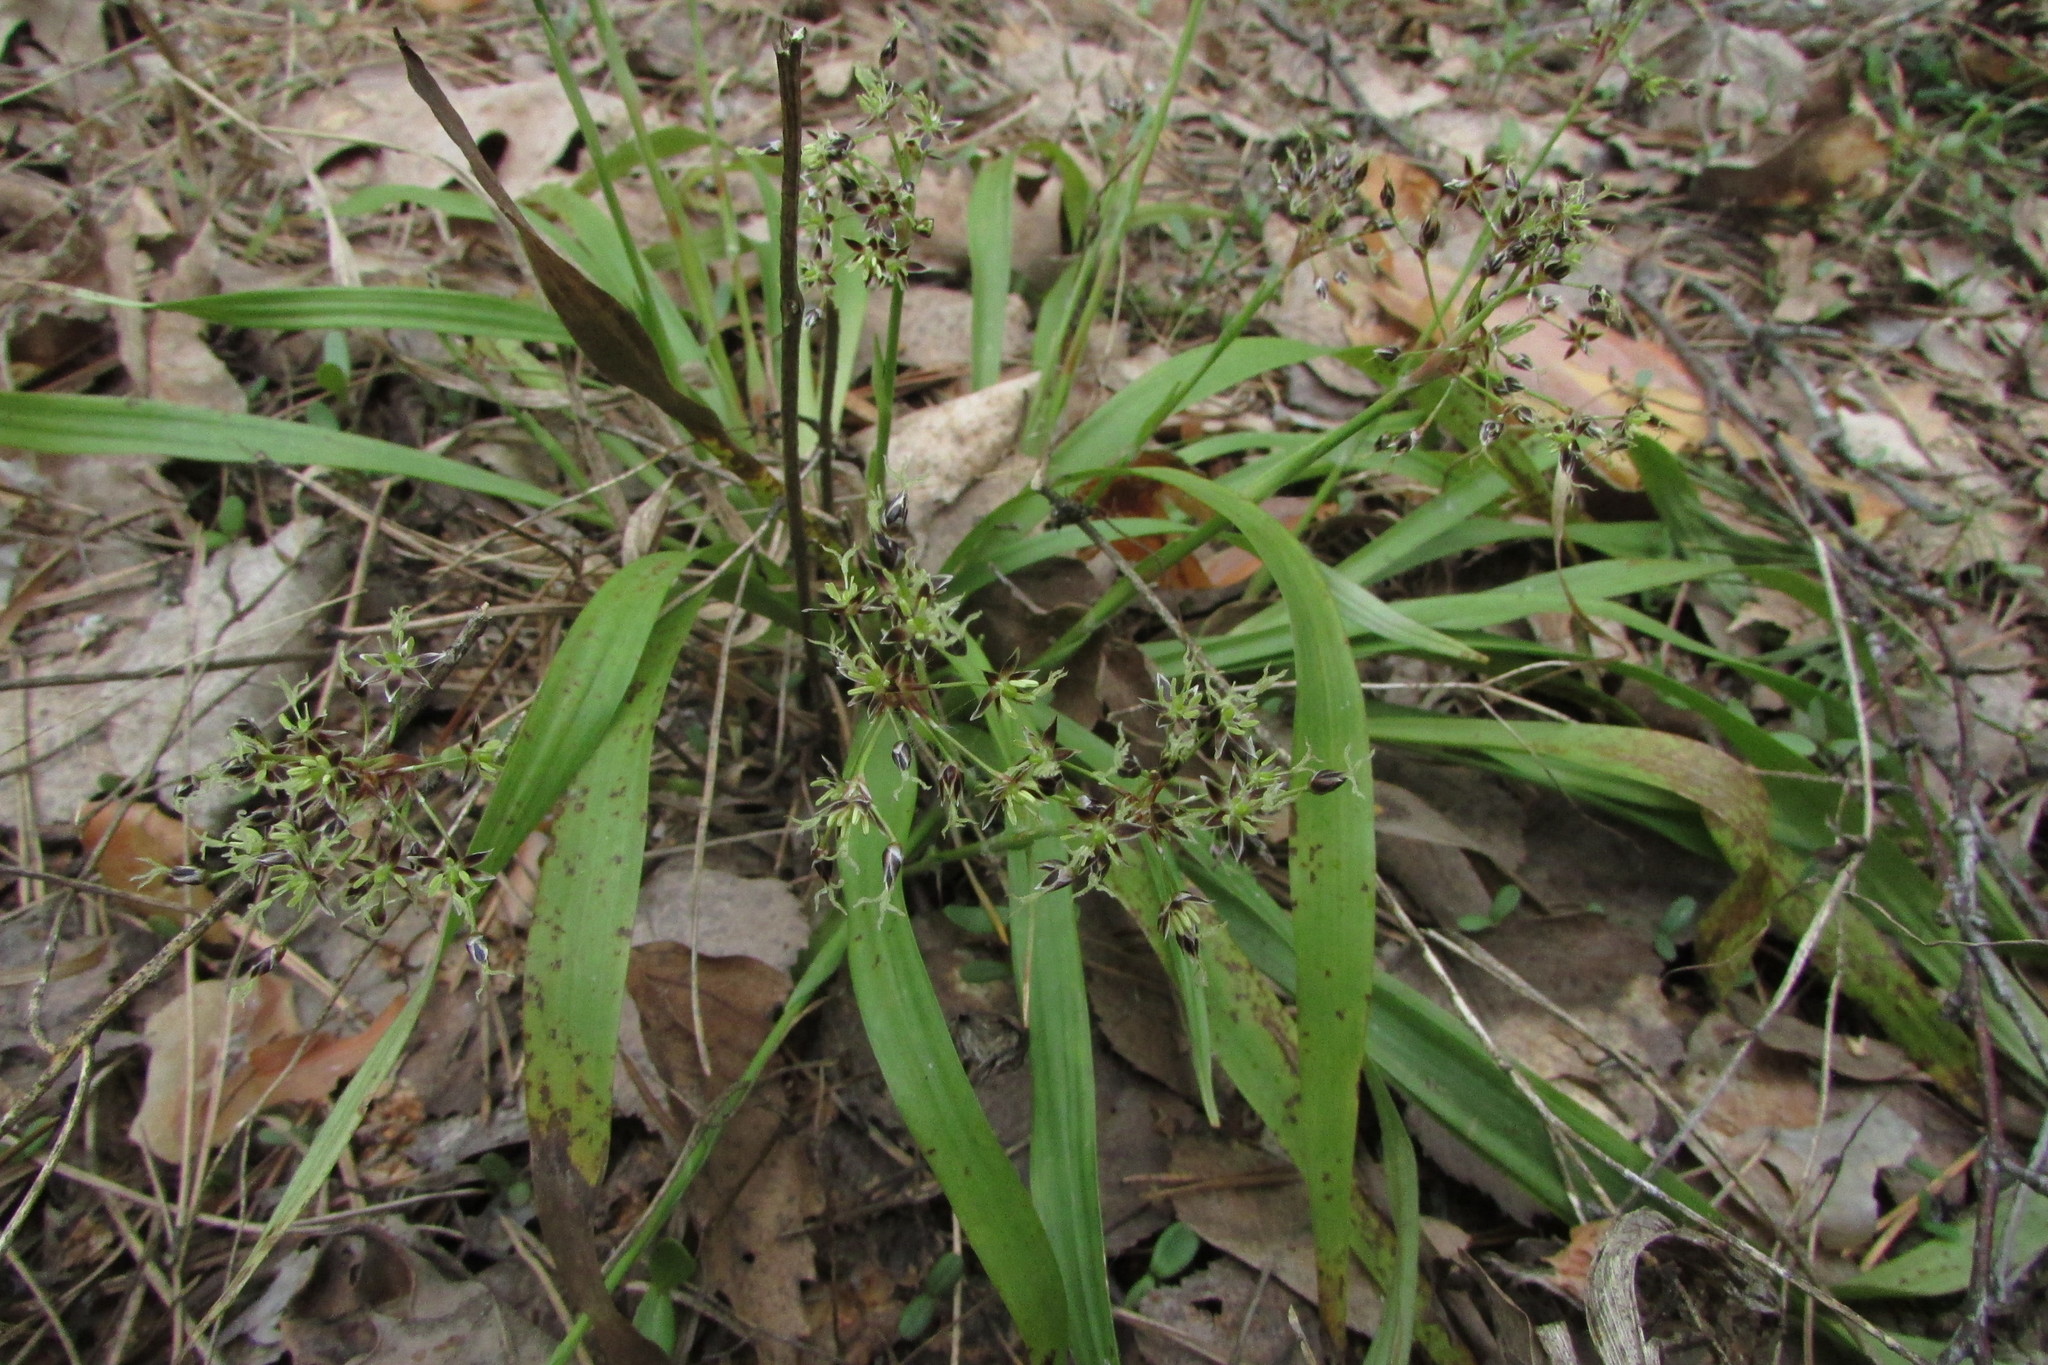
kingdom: Plantae
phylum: Tracheophyta
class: Liliopsida
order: Poales
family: Juncaceae
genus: Luzula
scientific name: Luzula pilosa
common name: Hairy wood-rush
